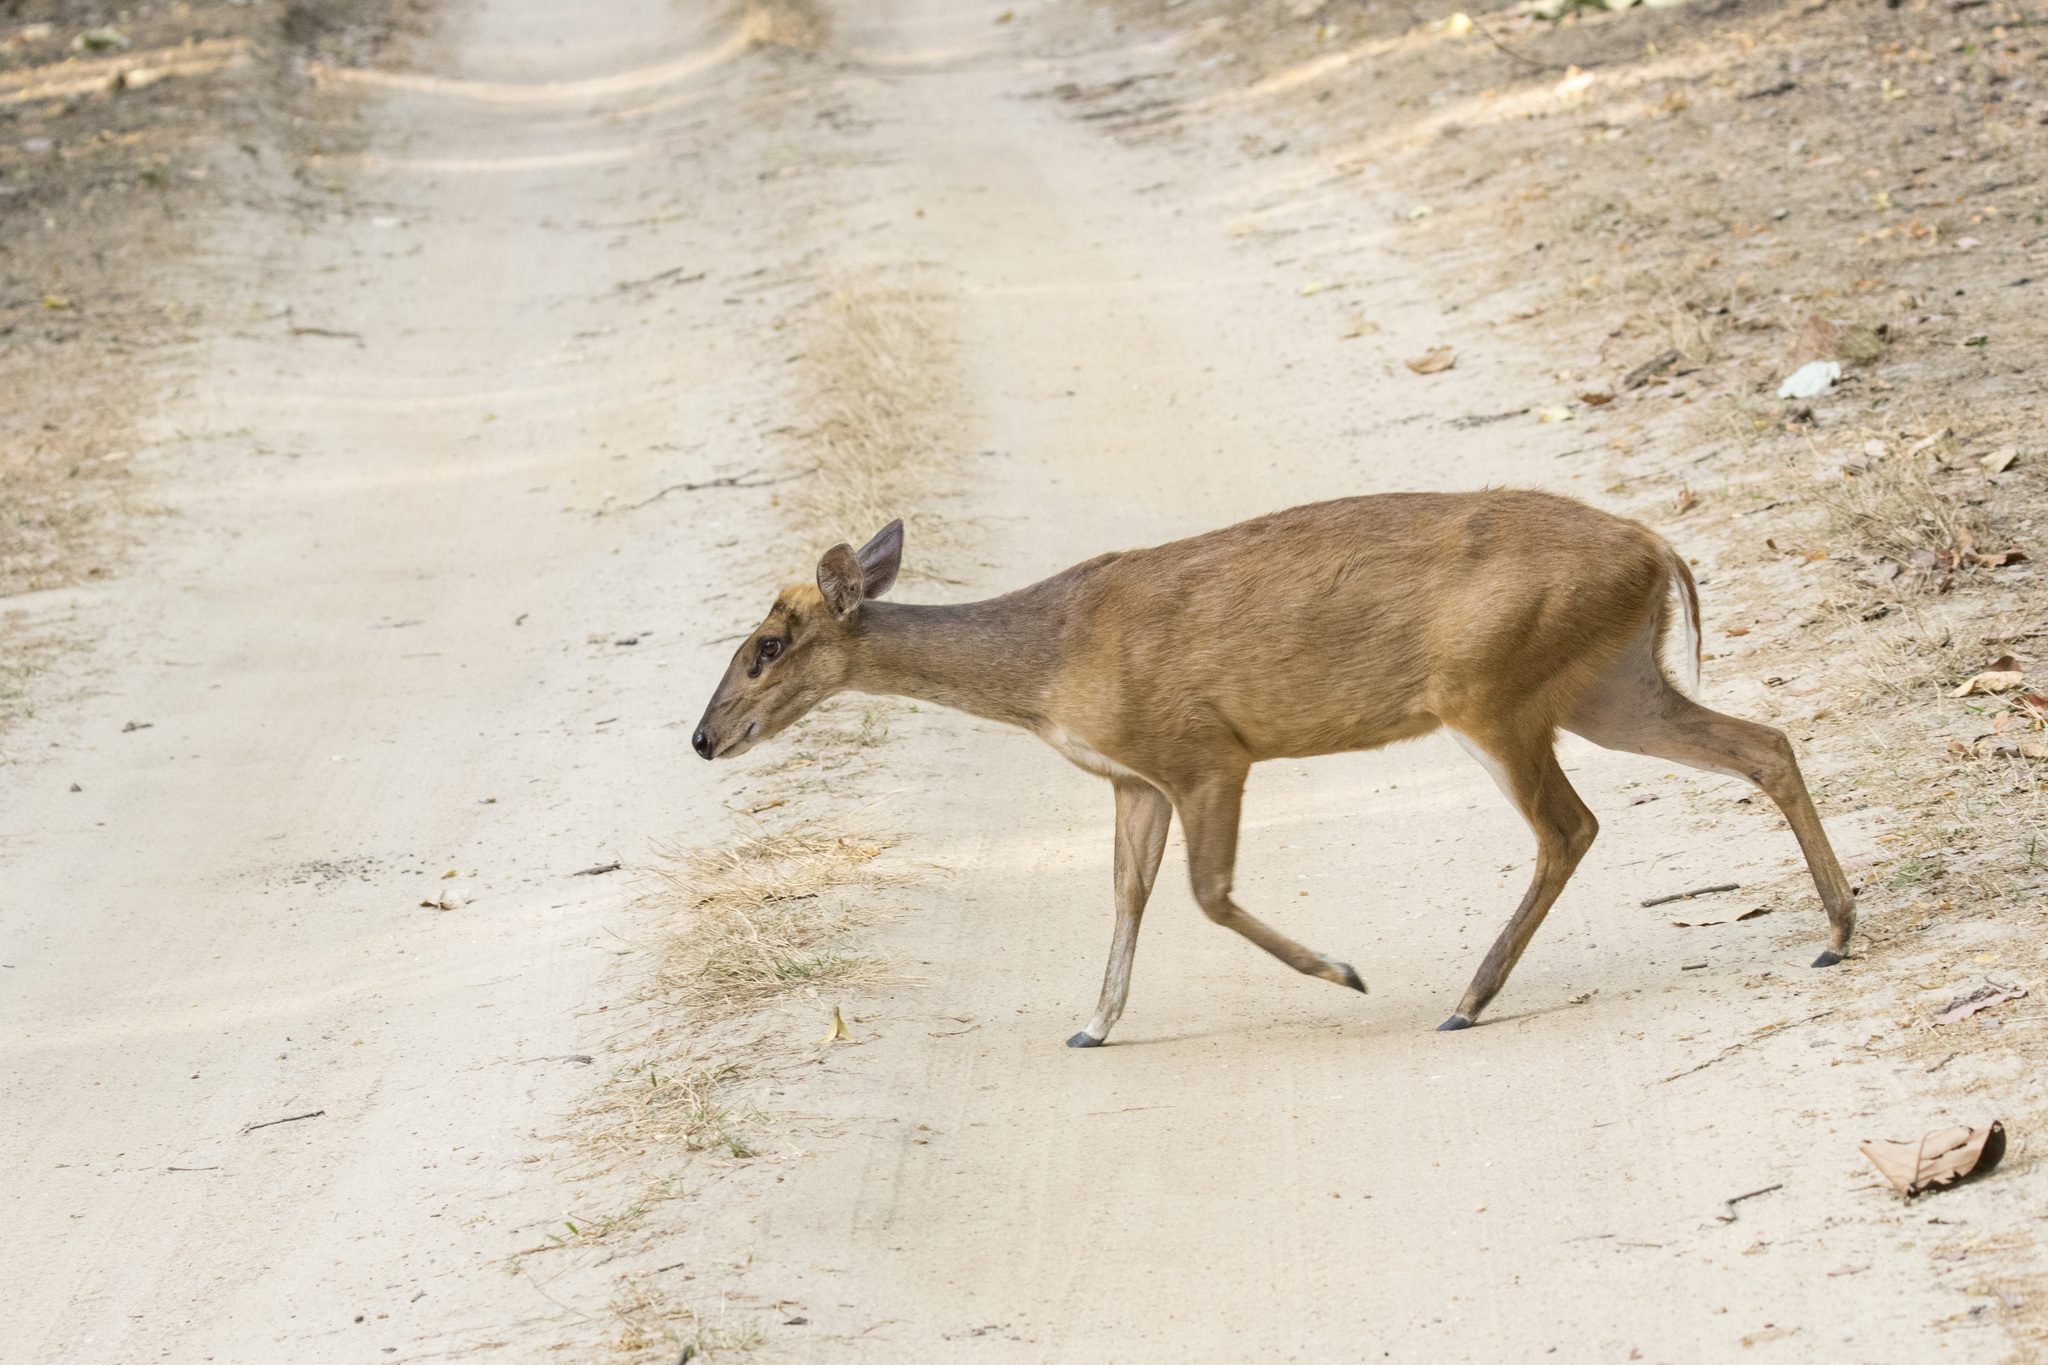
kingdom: Animalia
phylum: Chordata
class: Mammalia
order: Artiodactyla
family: Cervidae
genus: Muntiacus
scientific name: Muntiacus muntjak
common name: Indian muntjac
